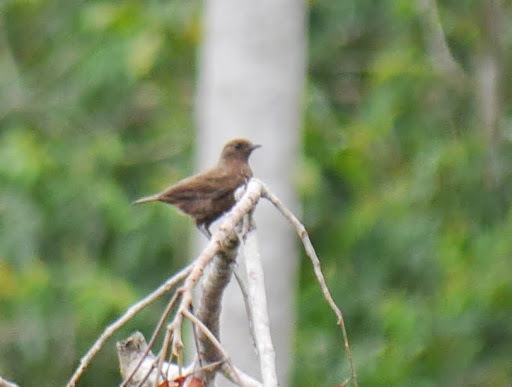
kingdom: Animalia
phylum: Chordata
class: Aves
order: Passeriformes
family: Muscicapidae
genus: Myrmecocichla
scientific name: Myrmecocichla nigra
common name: Sooty chat
